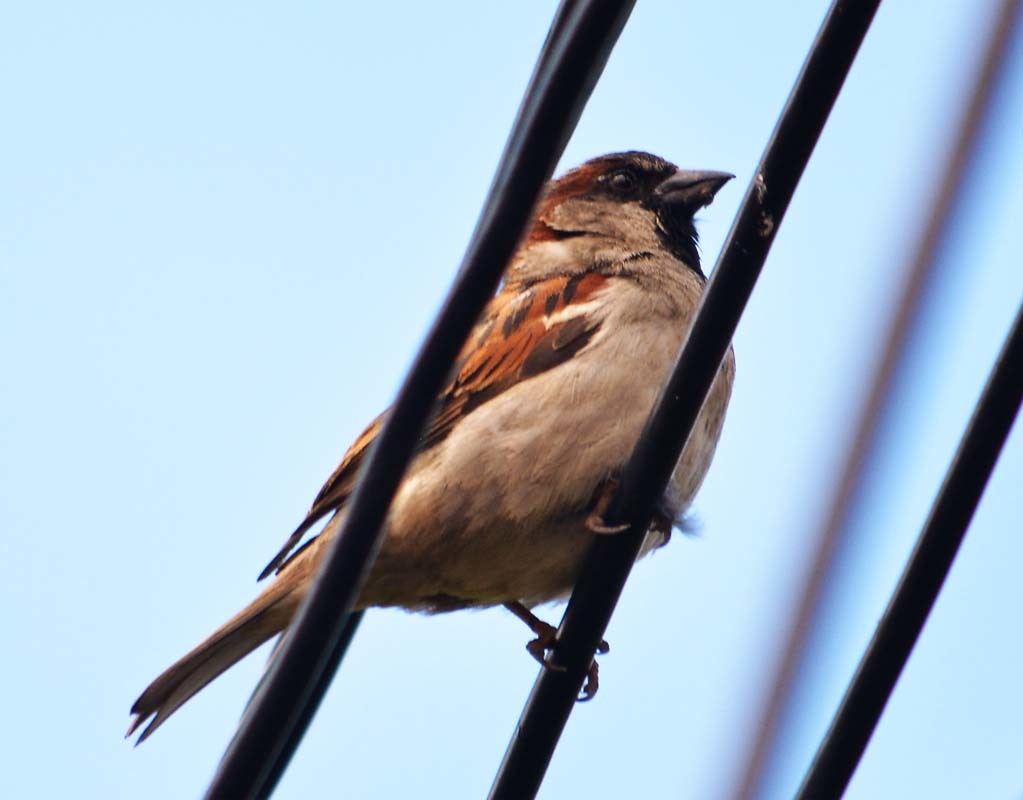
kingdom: Animalia
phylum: Chordata
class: Aves
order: Passeriformes
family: Passeridae
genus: Passer
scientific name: Passer domesticus
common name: House sparrow
